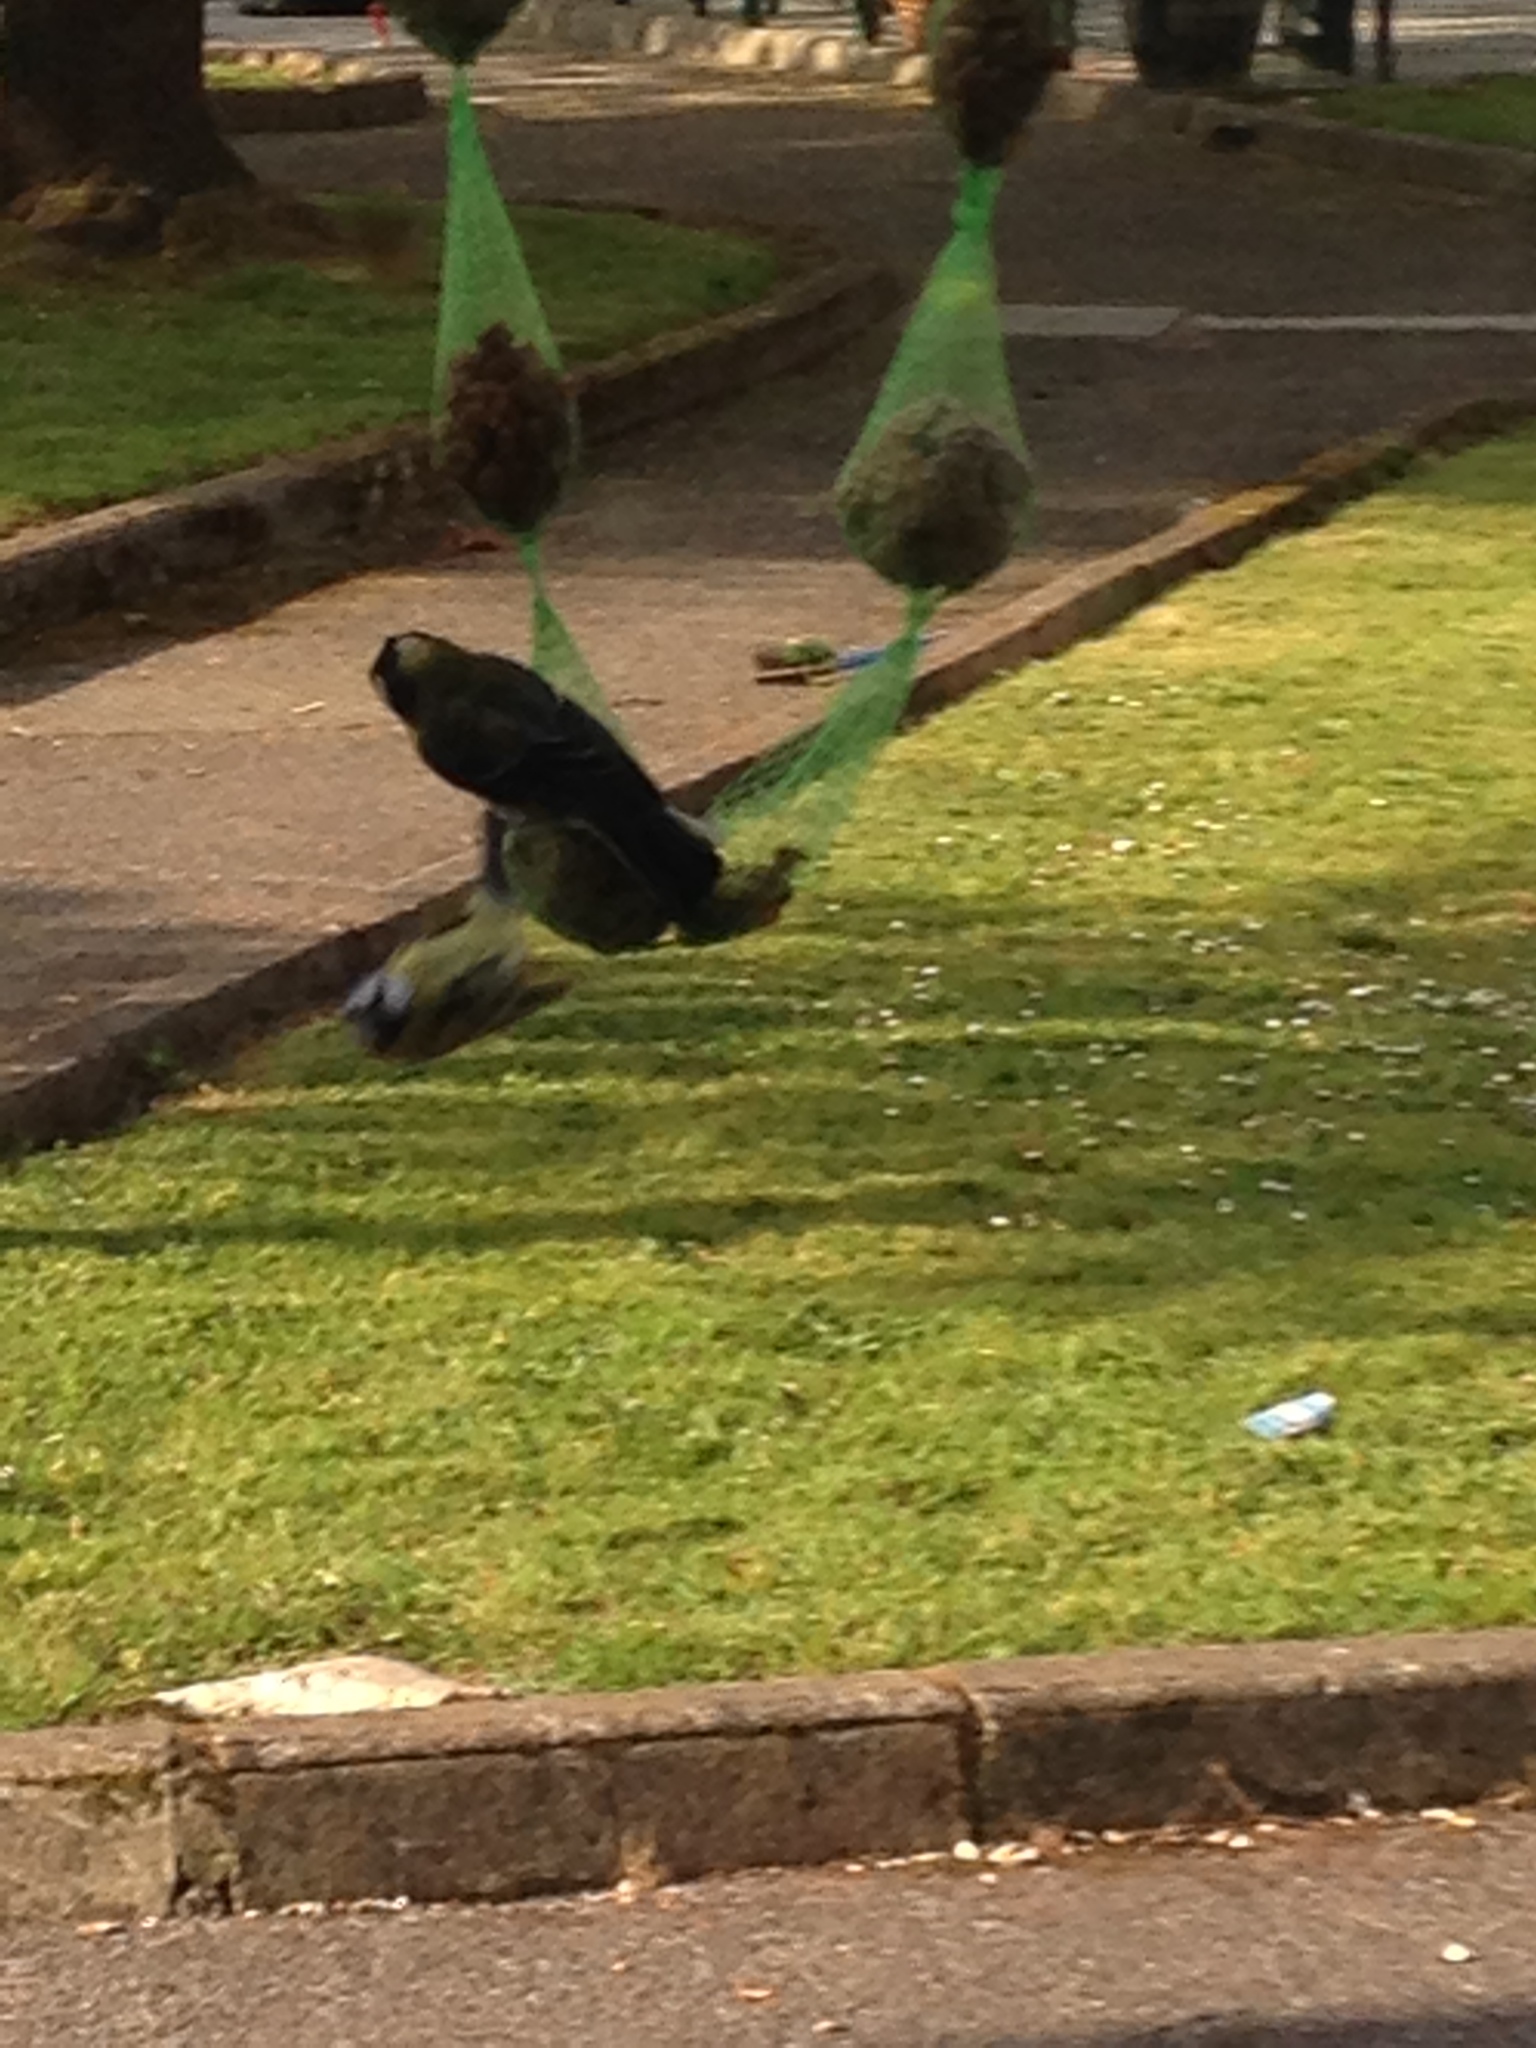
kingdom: Animalia
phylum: Chordata
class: Aves
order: Passeriformes
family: Paridae
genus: Cyanistes
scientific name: Cyanistes caeruleus
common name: Eurasian blue tit
